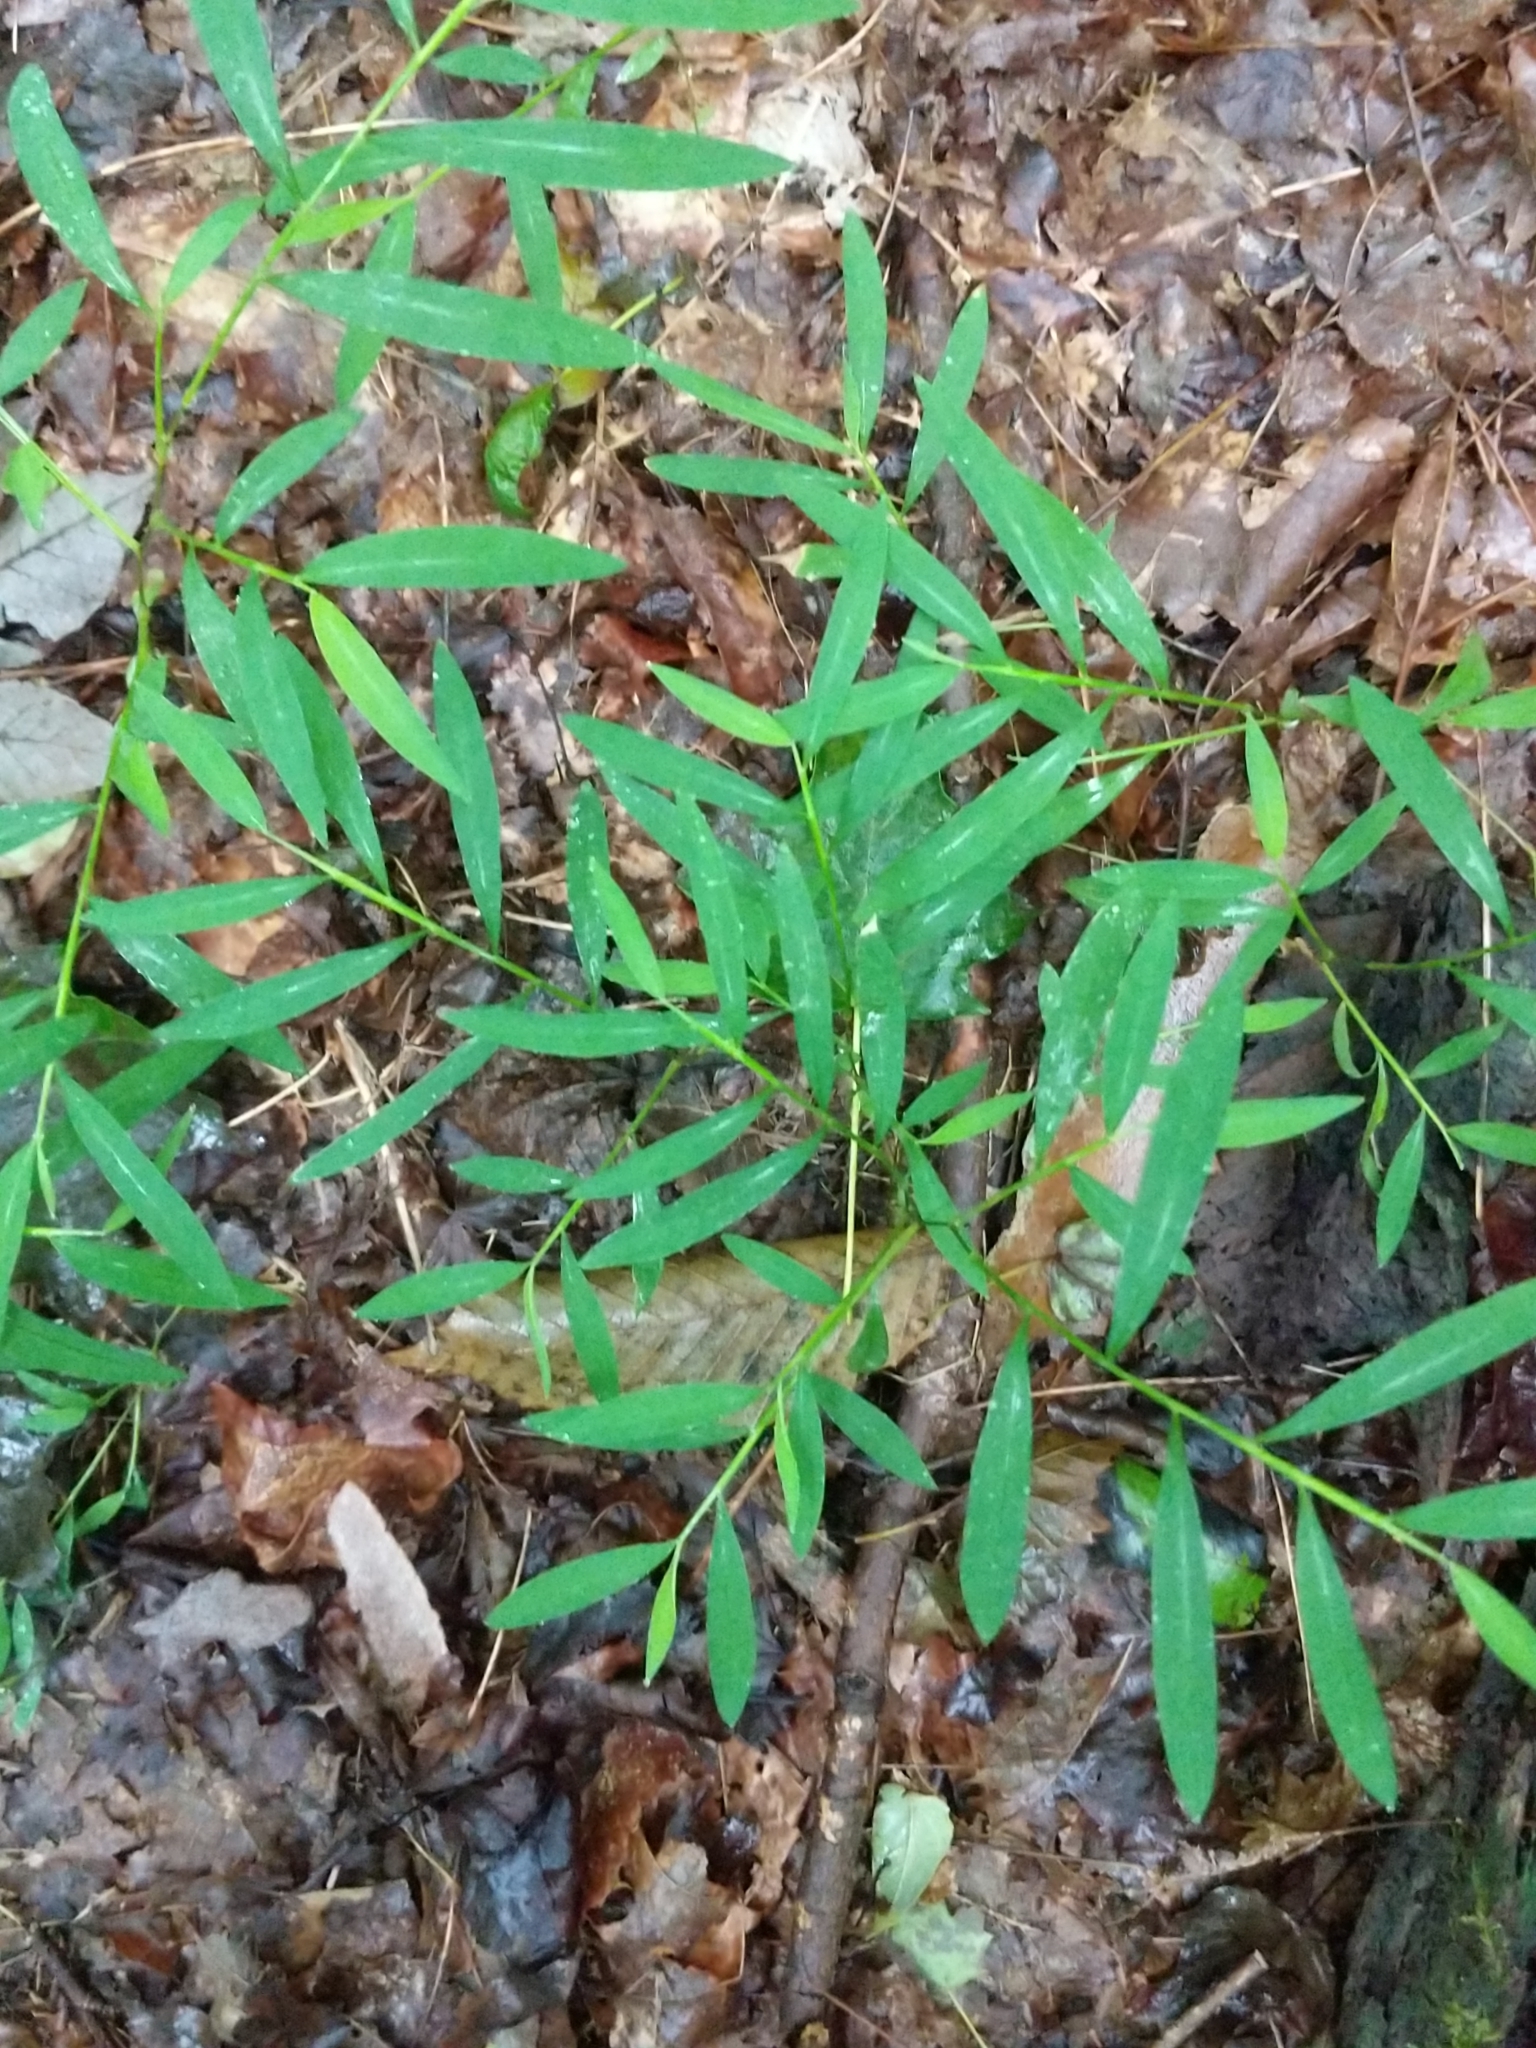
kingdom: Plantae
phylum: Tracheophyta
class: Liliopsida
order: Poales
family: Poaceae
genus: Microstegium
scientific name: Microstegium vimineum
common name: Japanese stiltgrass
